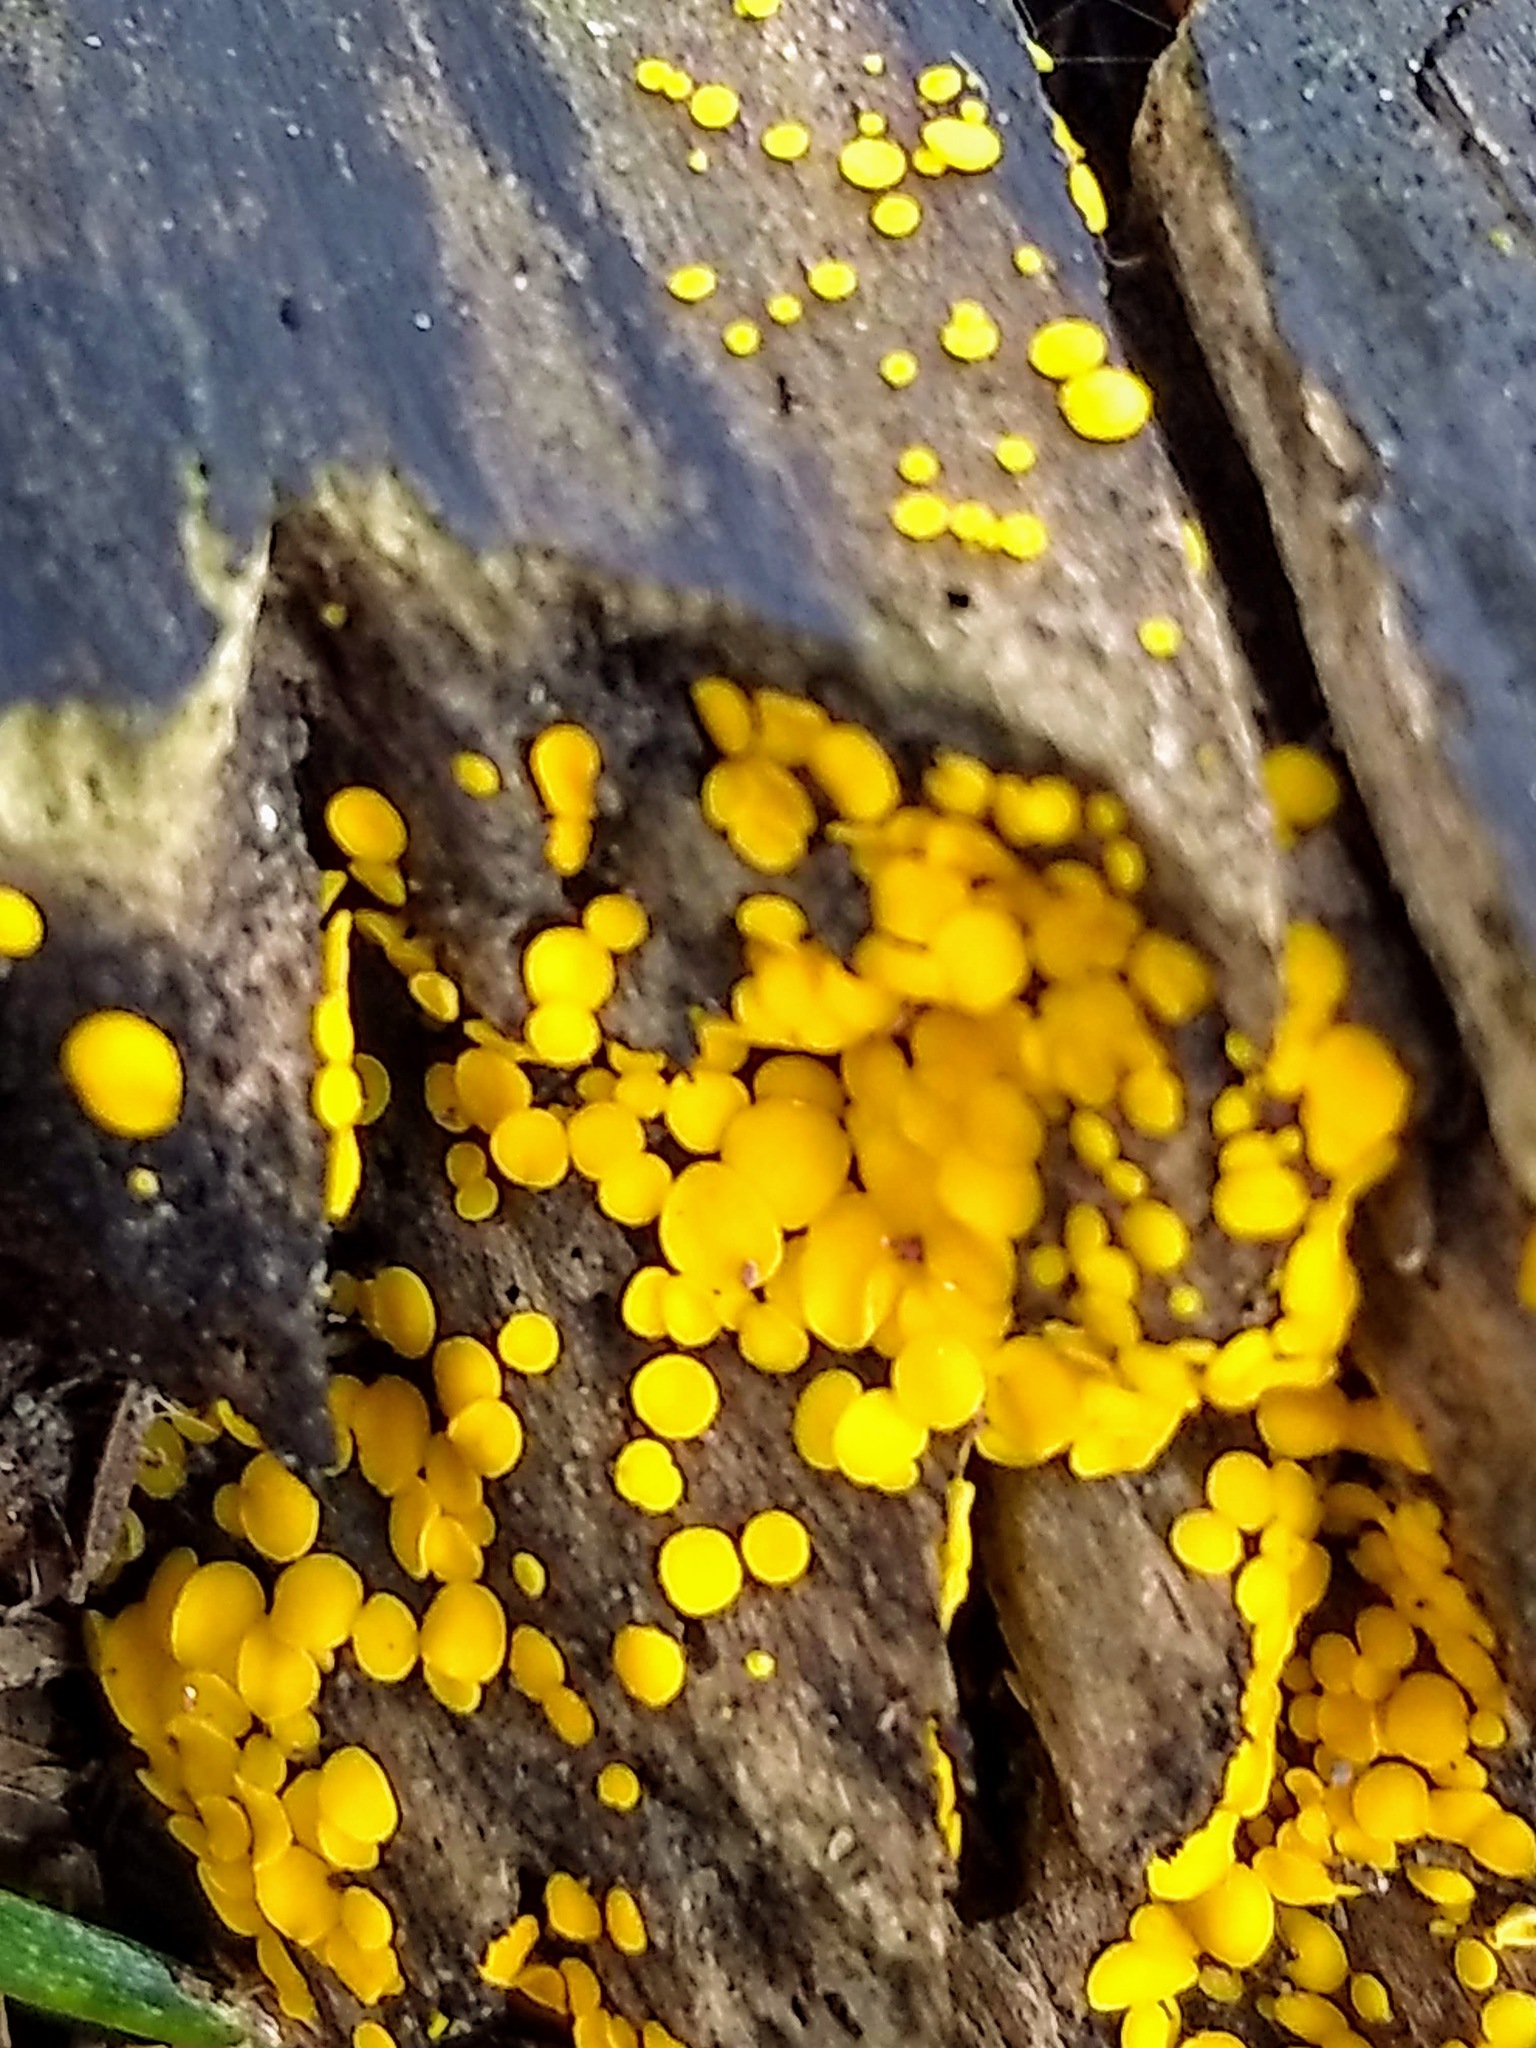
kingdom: Fungi
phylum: Ascomycota
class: Leotiomycetes
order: Helotiales
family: Pezizellaceae
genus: Calycina
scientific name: Calycina citrina
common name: Yellow fairy cups
